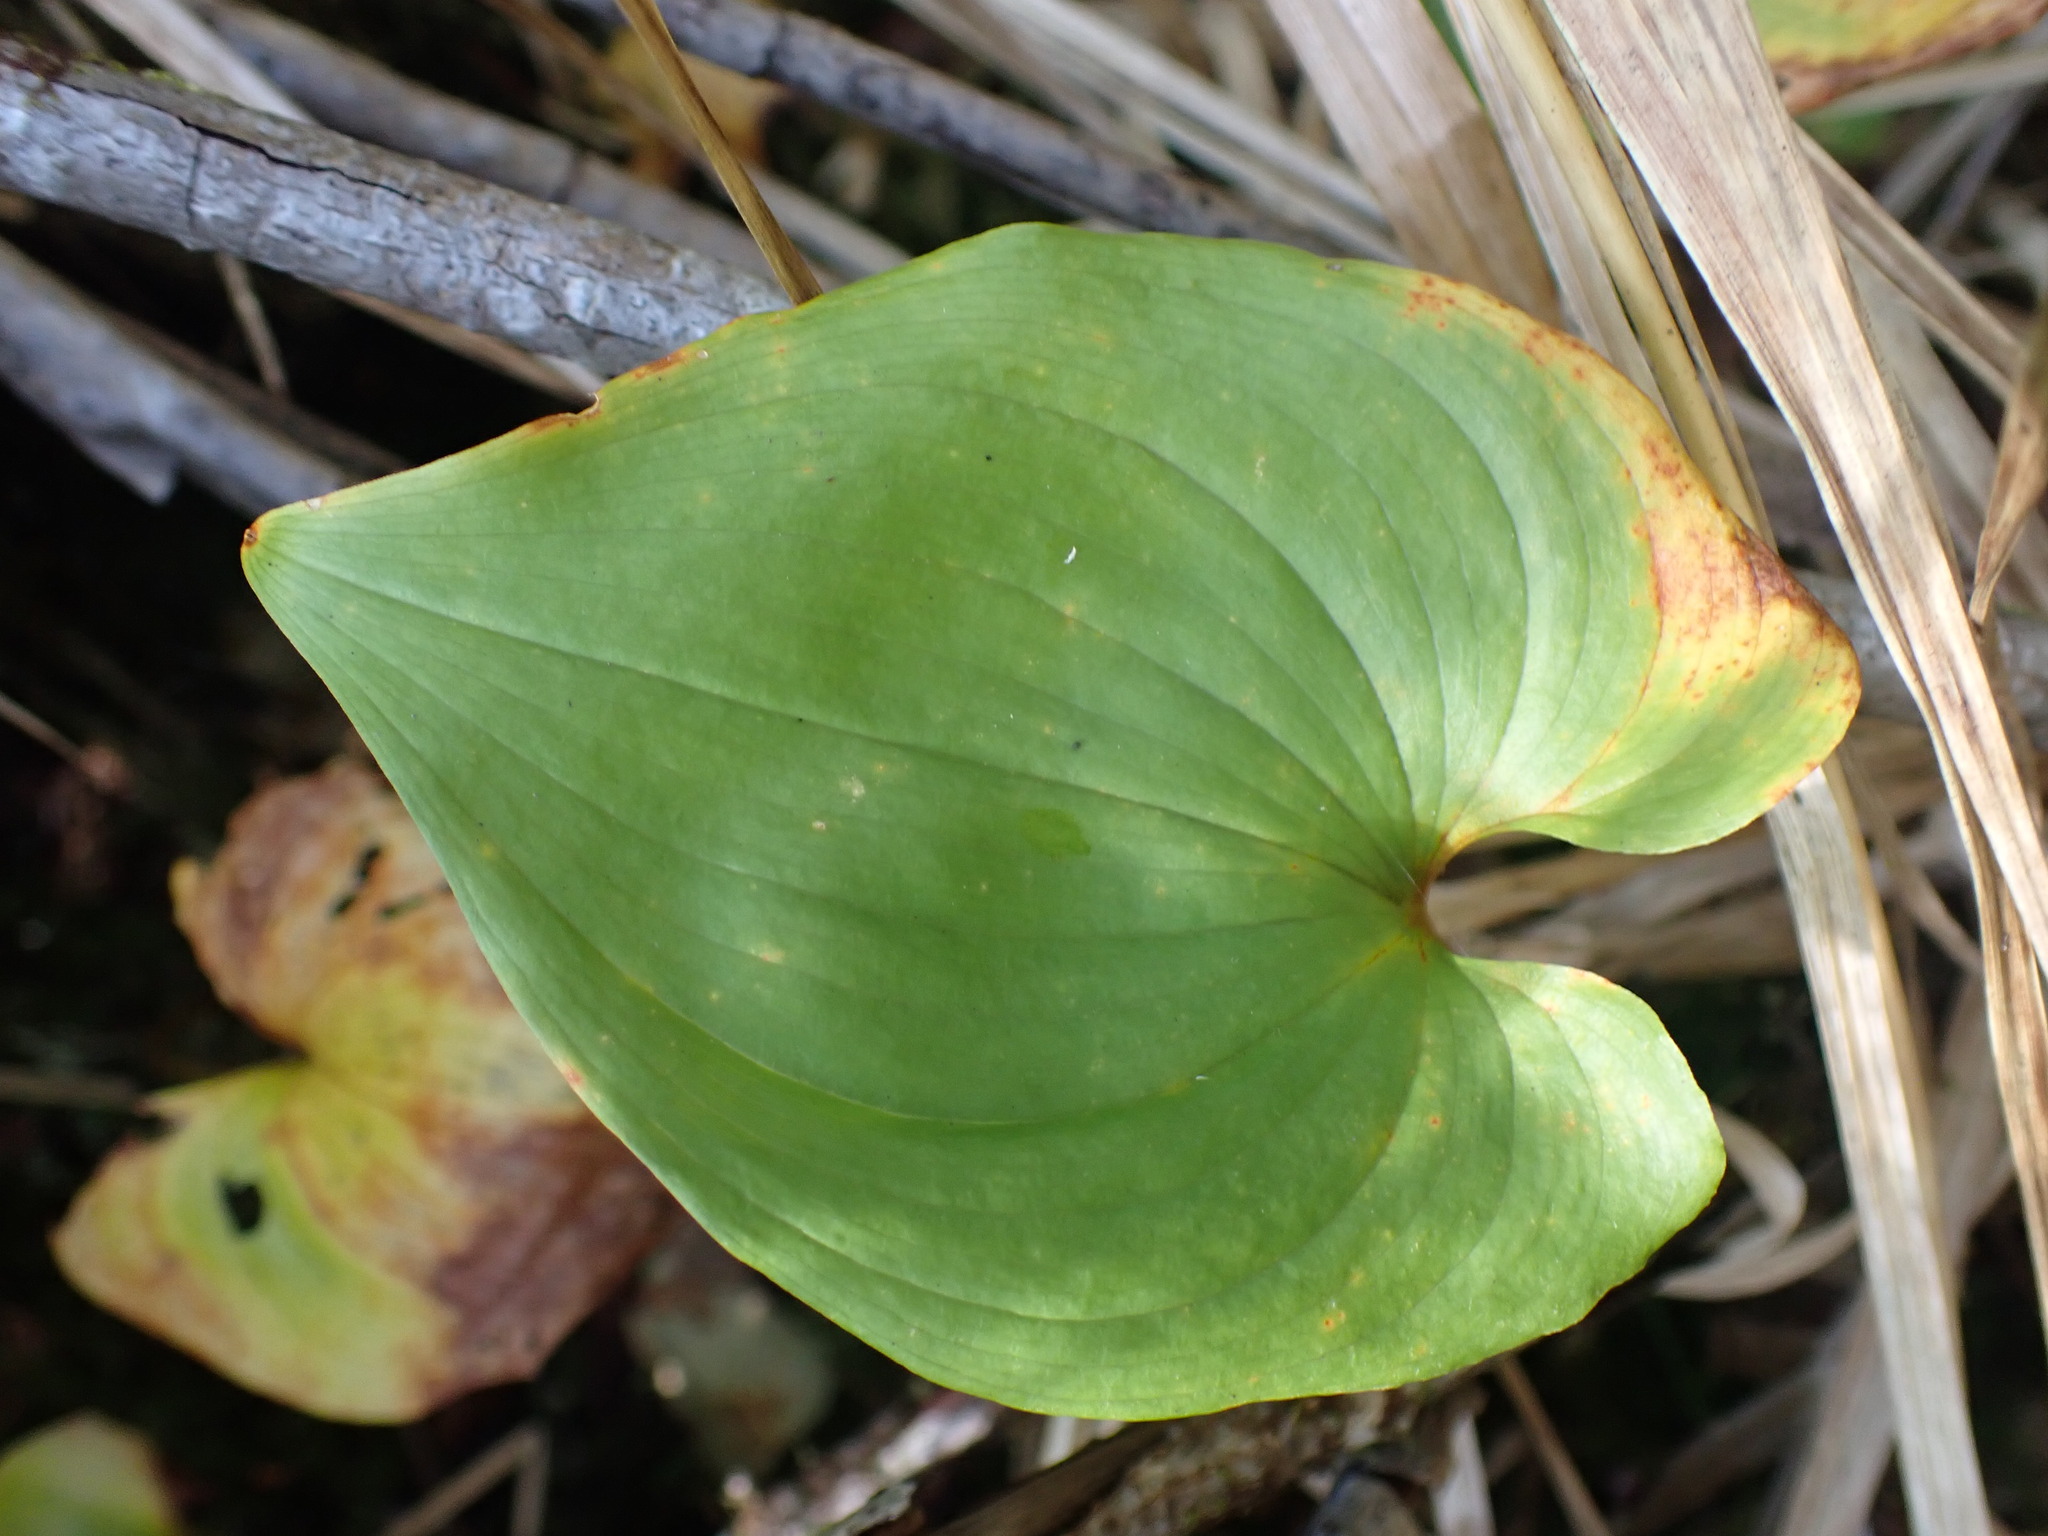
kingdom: Plantae
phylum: Tracheophyta
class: Liliopsida
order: Asparagales
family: Asparagaceae
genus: Maianthemum
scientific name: Maianthemum dilatatum
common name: False lily-of-the-valley
